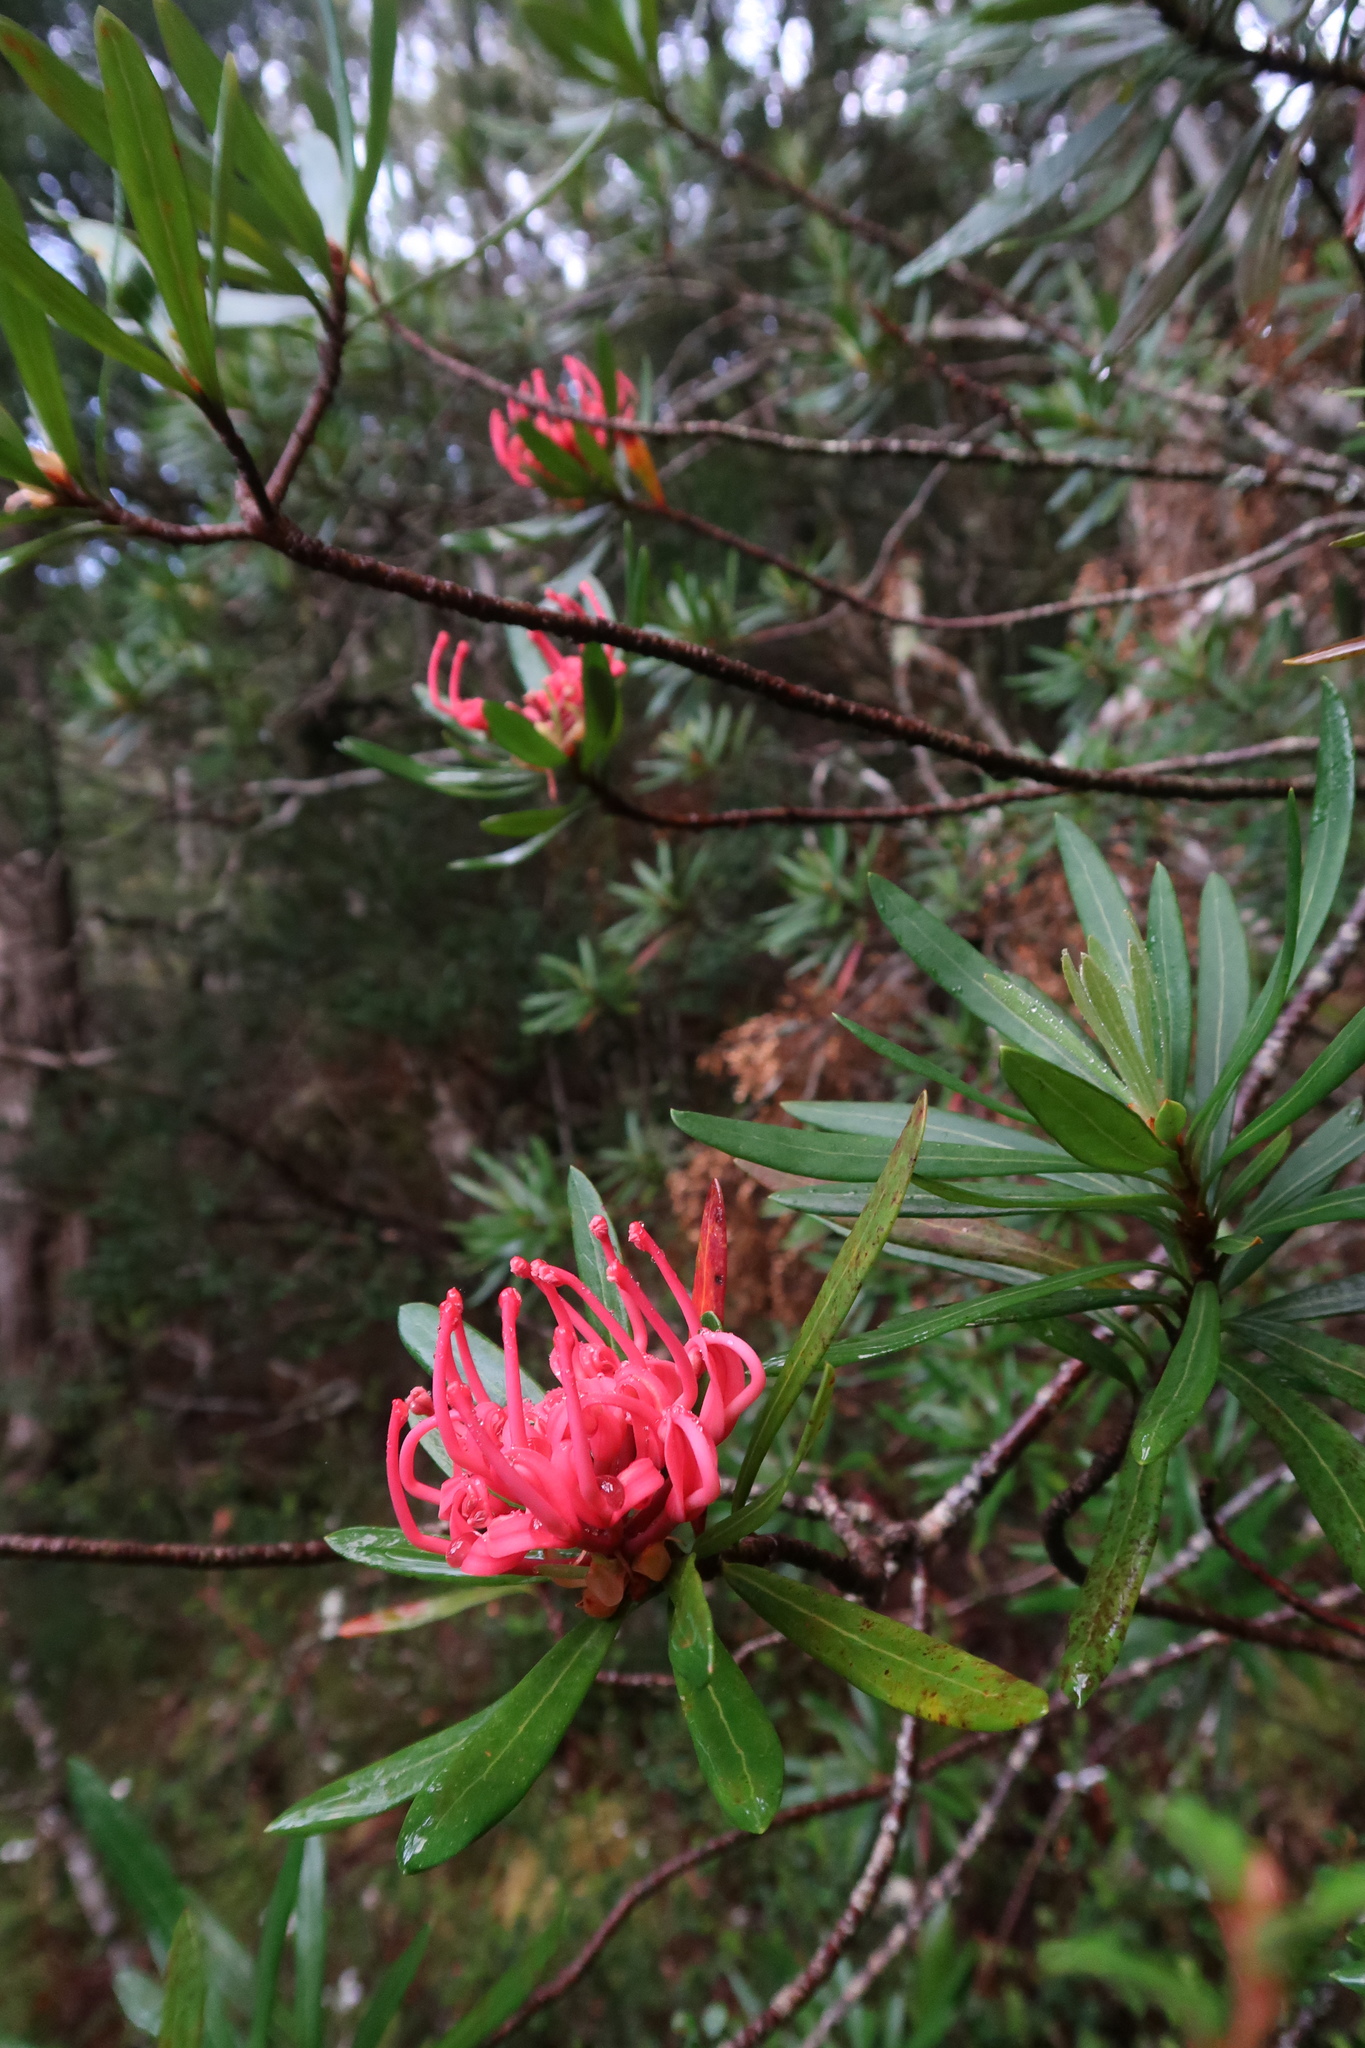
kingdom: Plantae
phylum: Tracheophyta
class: Magnoliopsida
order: Proteales
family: Proteaceae
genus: Telopea
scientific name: Telopea truncata
